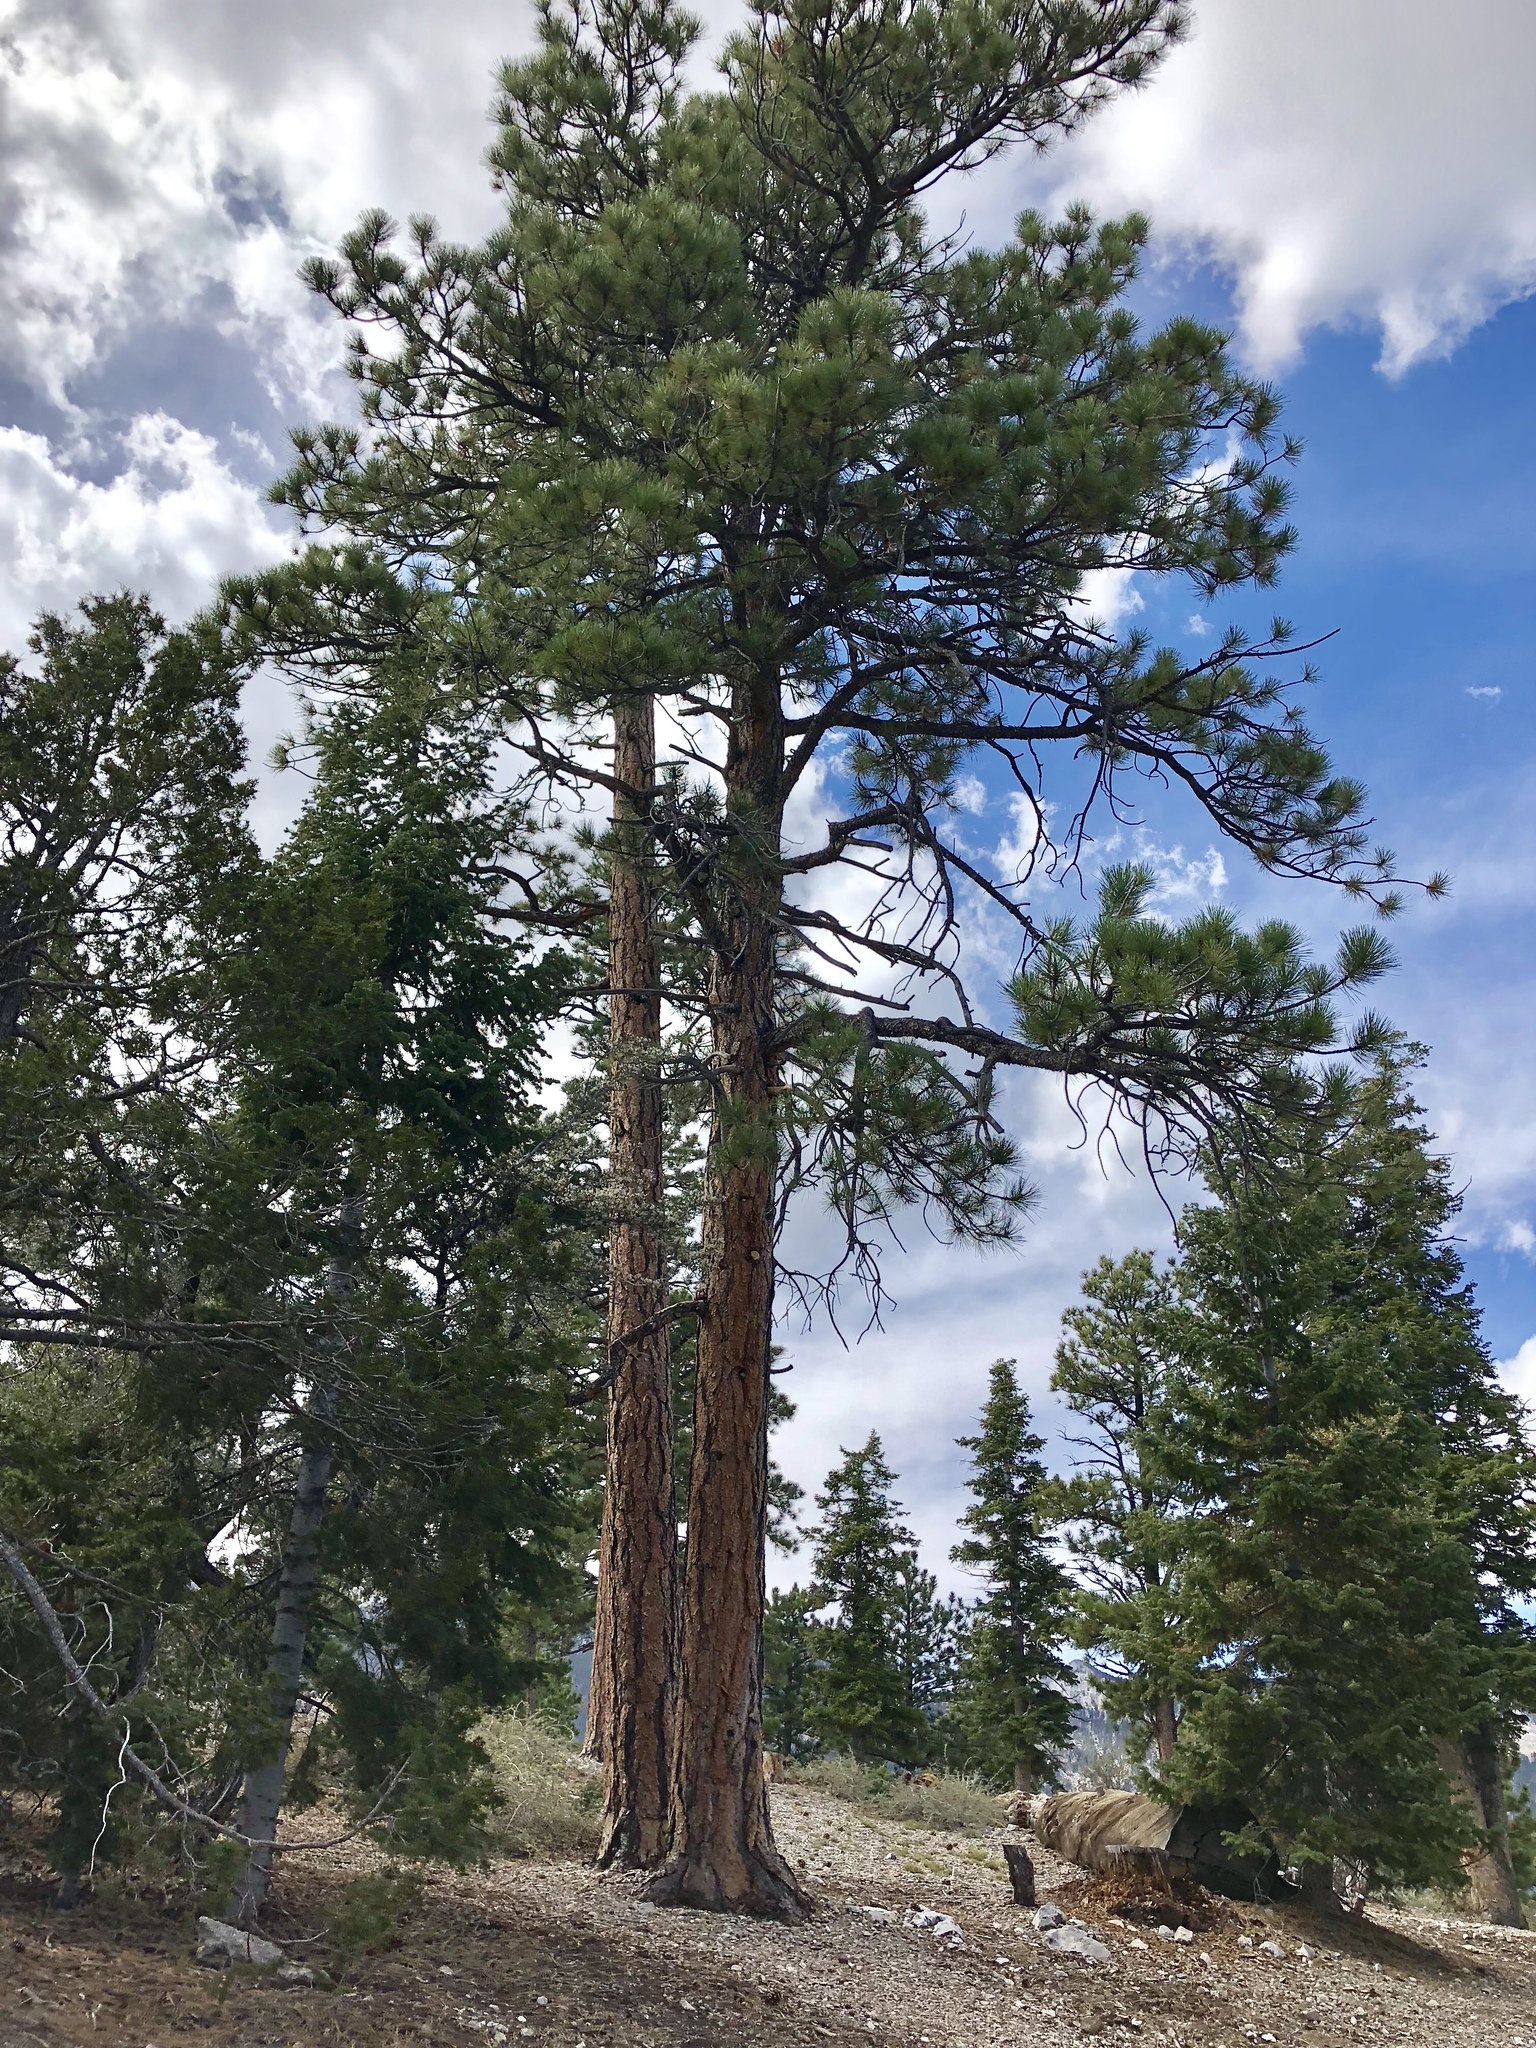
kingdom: Plantae
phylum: Tracheophyta
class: Pinopsida
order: Pinales
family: Pinaceae
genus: Pinus
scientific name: Pinus ponderosa
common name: Western yellow-pine
